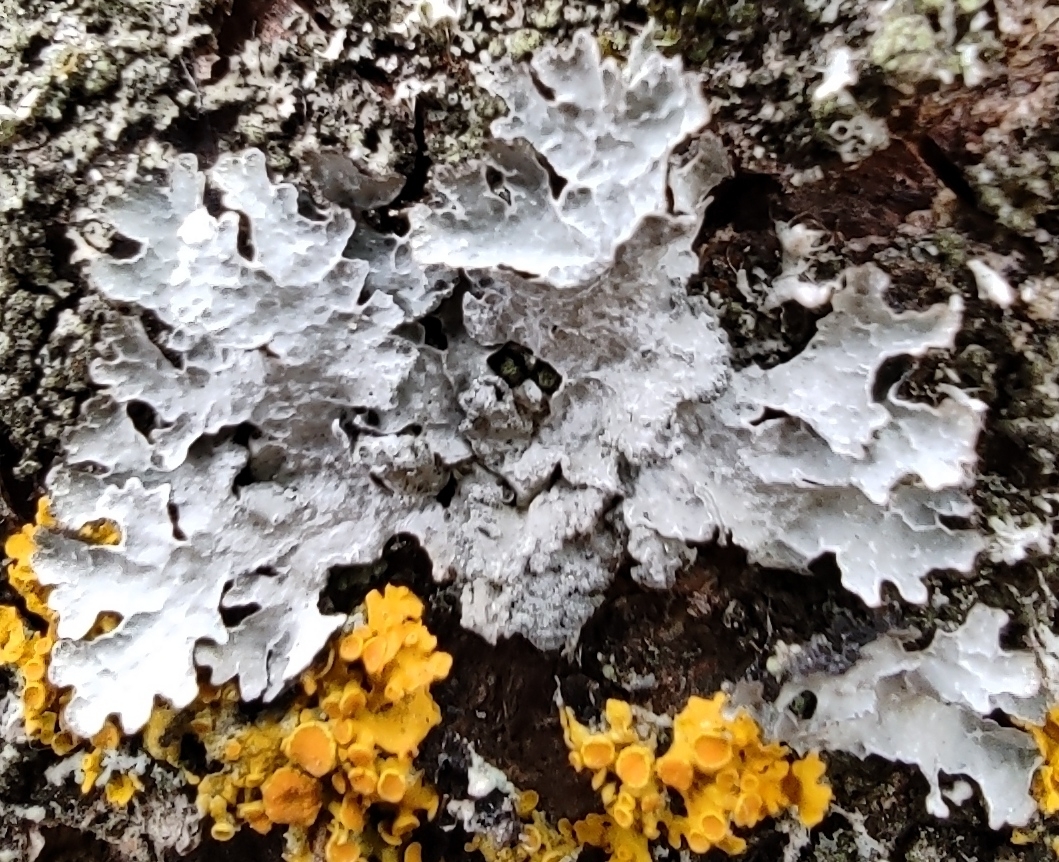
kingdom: Fungi
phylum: Ascomycota
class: Lecanoromycetes
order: Lecanorales
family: Parmeliaceae
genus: Parmelia
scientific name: Parmelia sulcata
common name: Netted shield lichen
